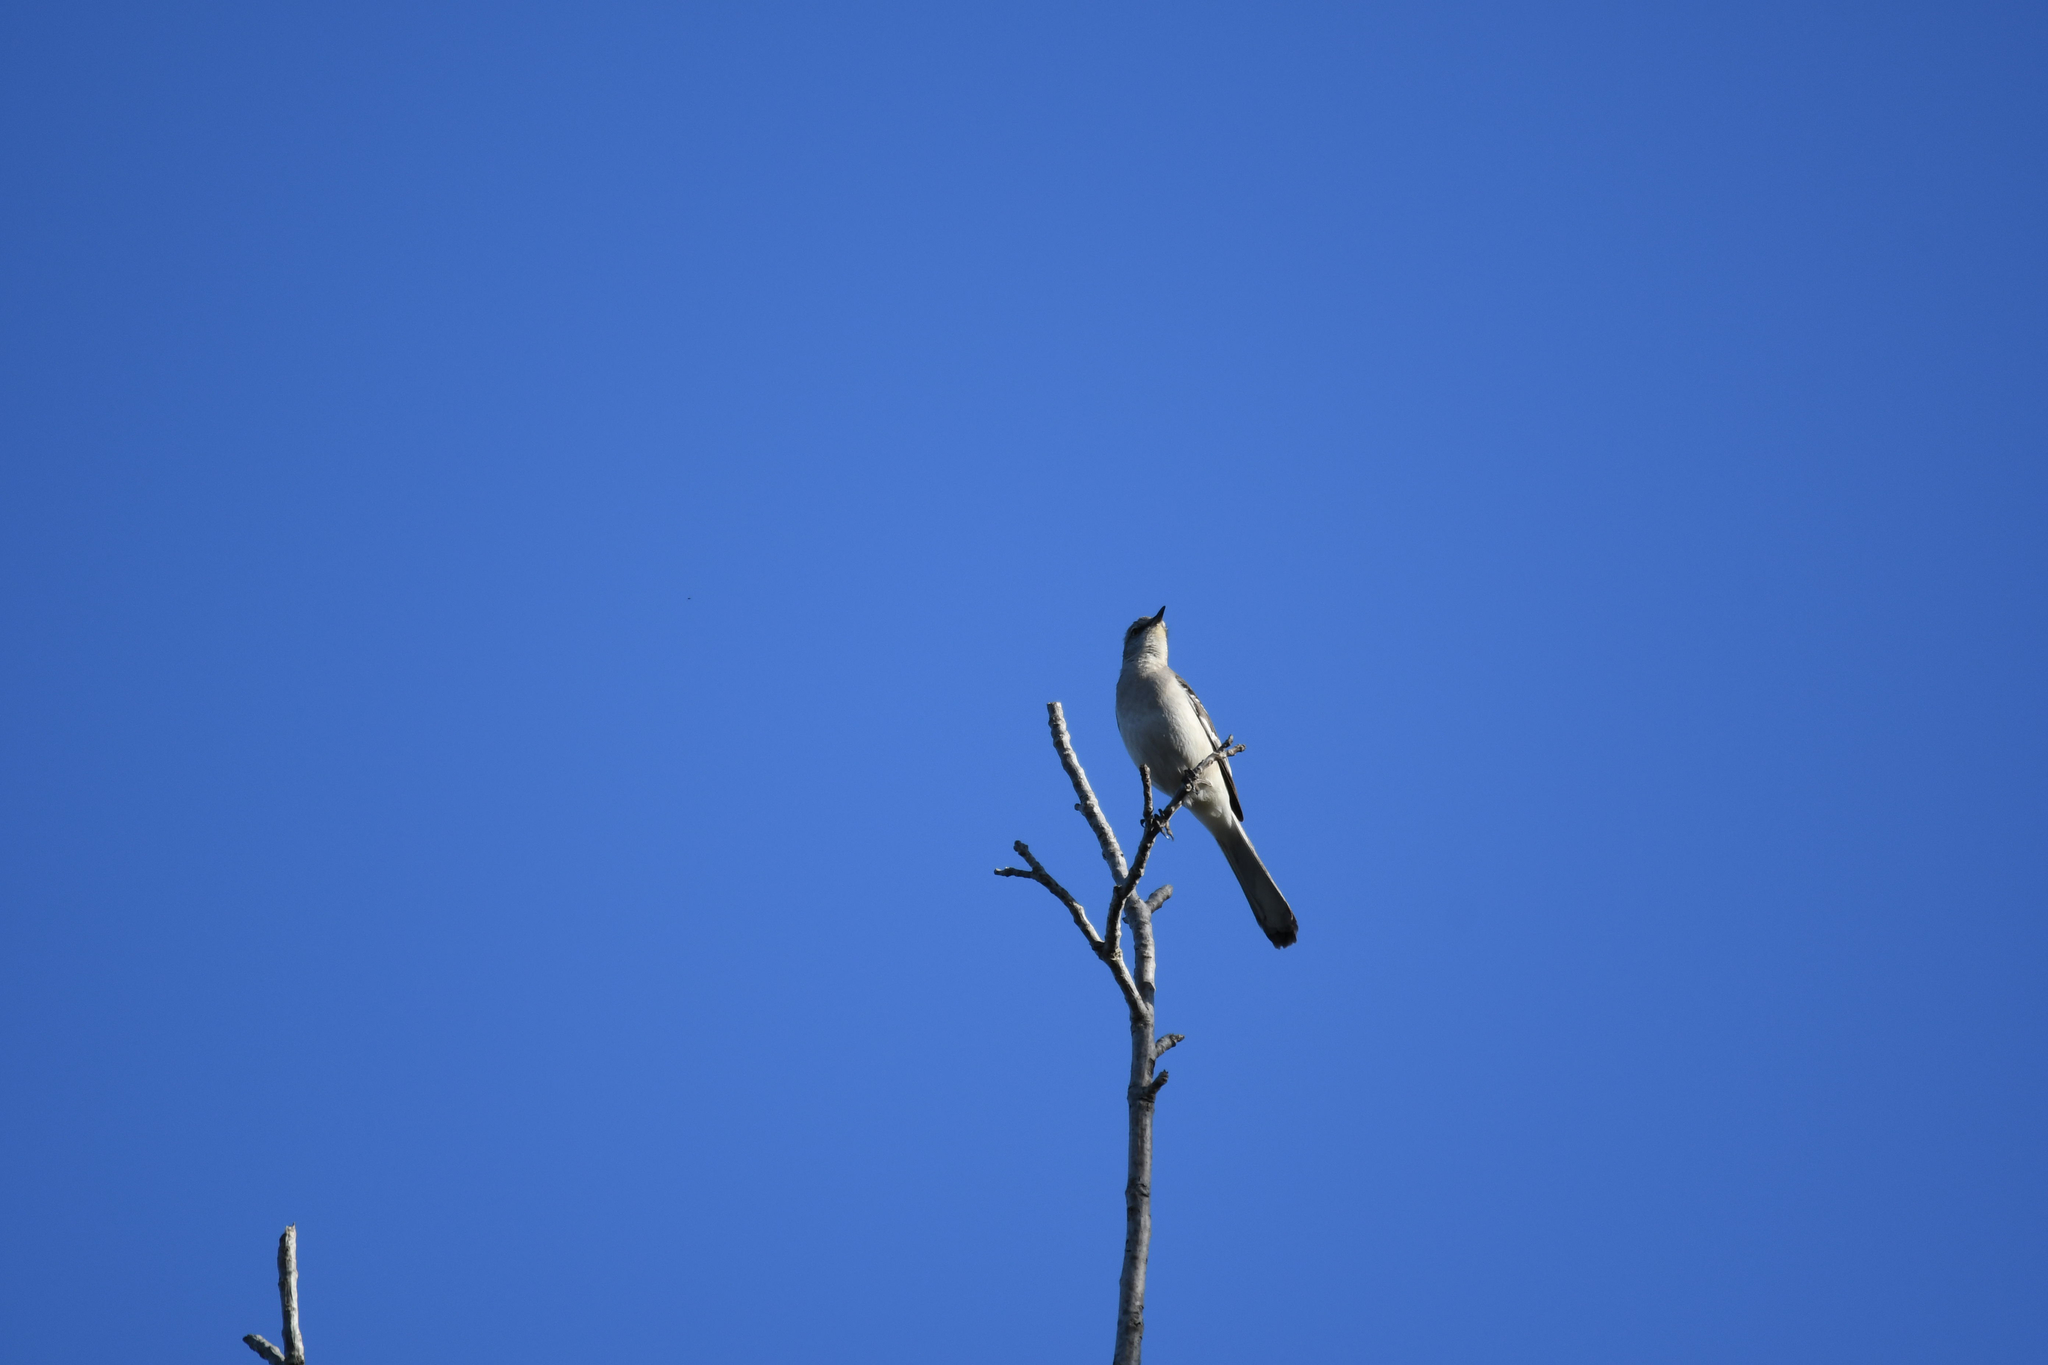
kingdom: Animalia
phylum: Chordata
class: Aves
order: Passeriformes
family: Mimidae
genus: Mimus
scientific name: Mimus polyglottos
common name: Northern mockingbird
